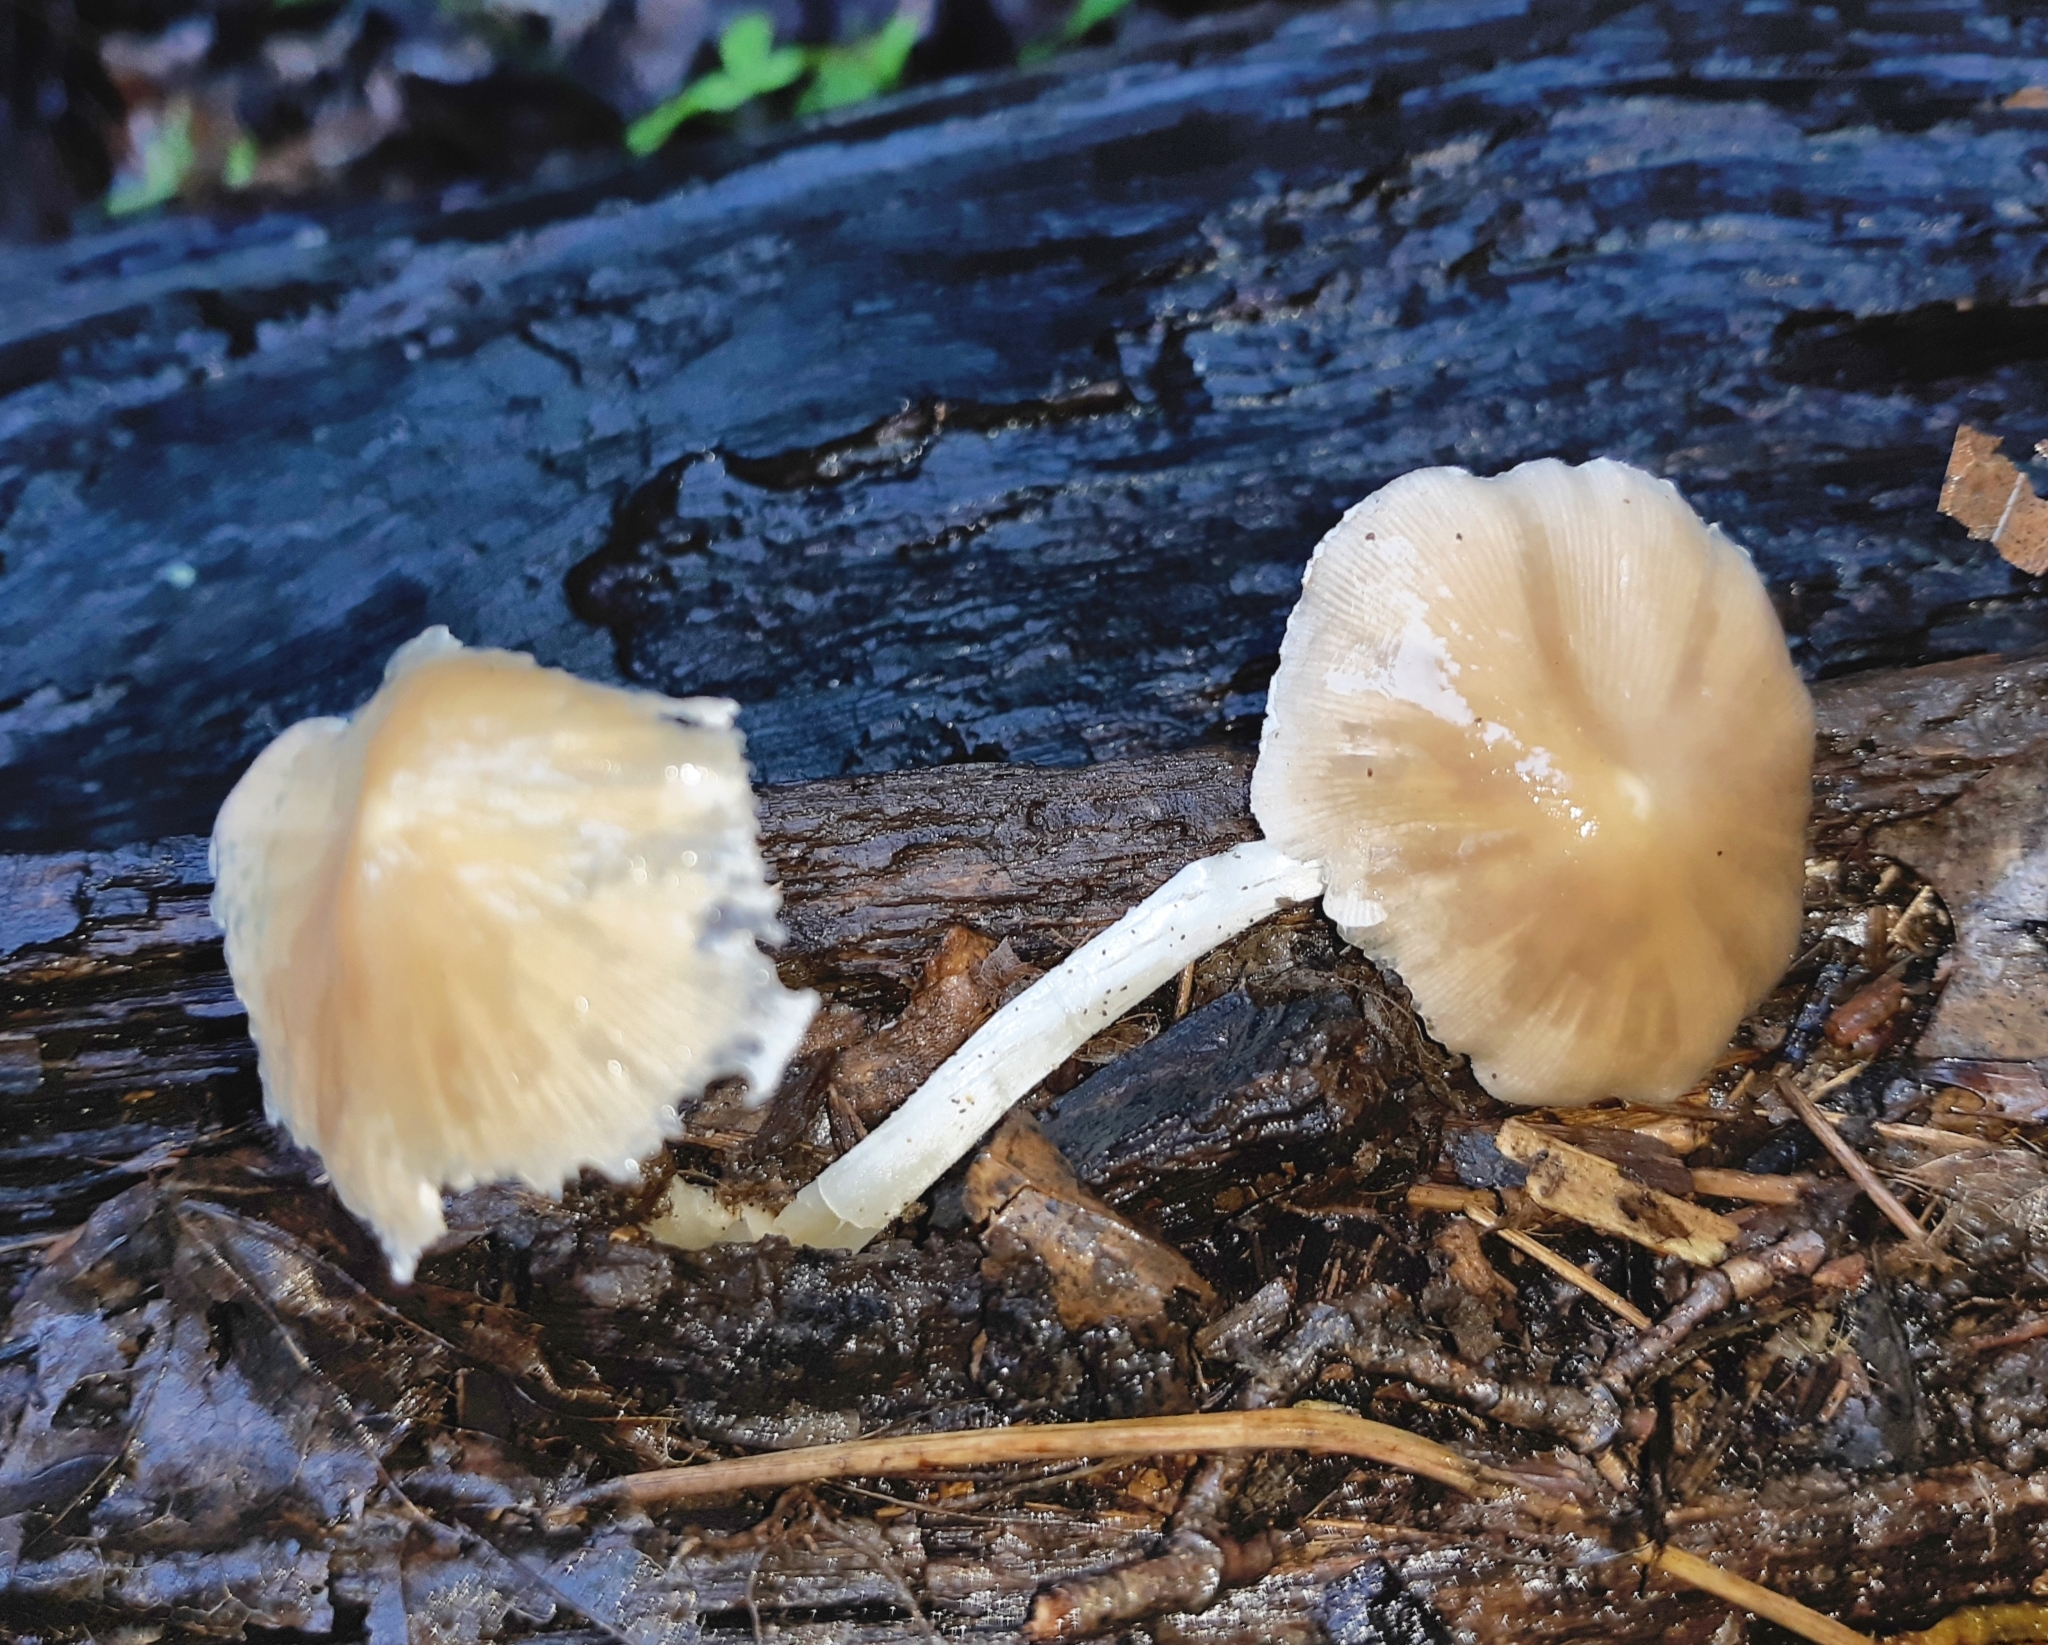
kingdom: Fungi
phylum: Basidiomycota
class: Agaricomycetes
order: Agaricales
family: Psathyrellaceae
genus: Candolleomyces
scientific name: Candolleomyces candolleanus
